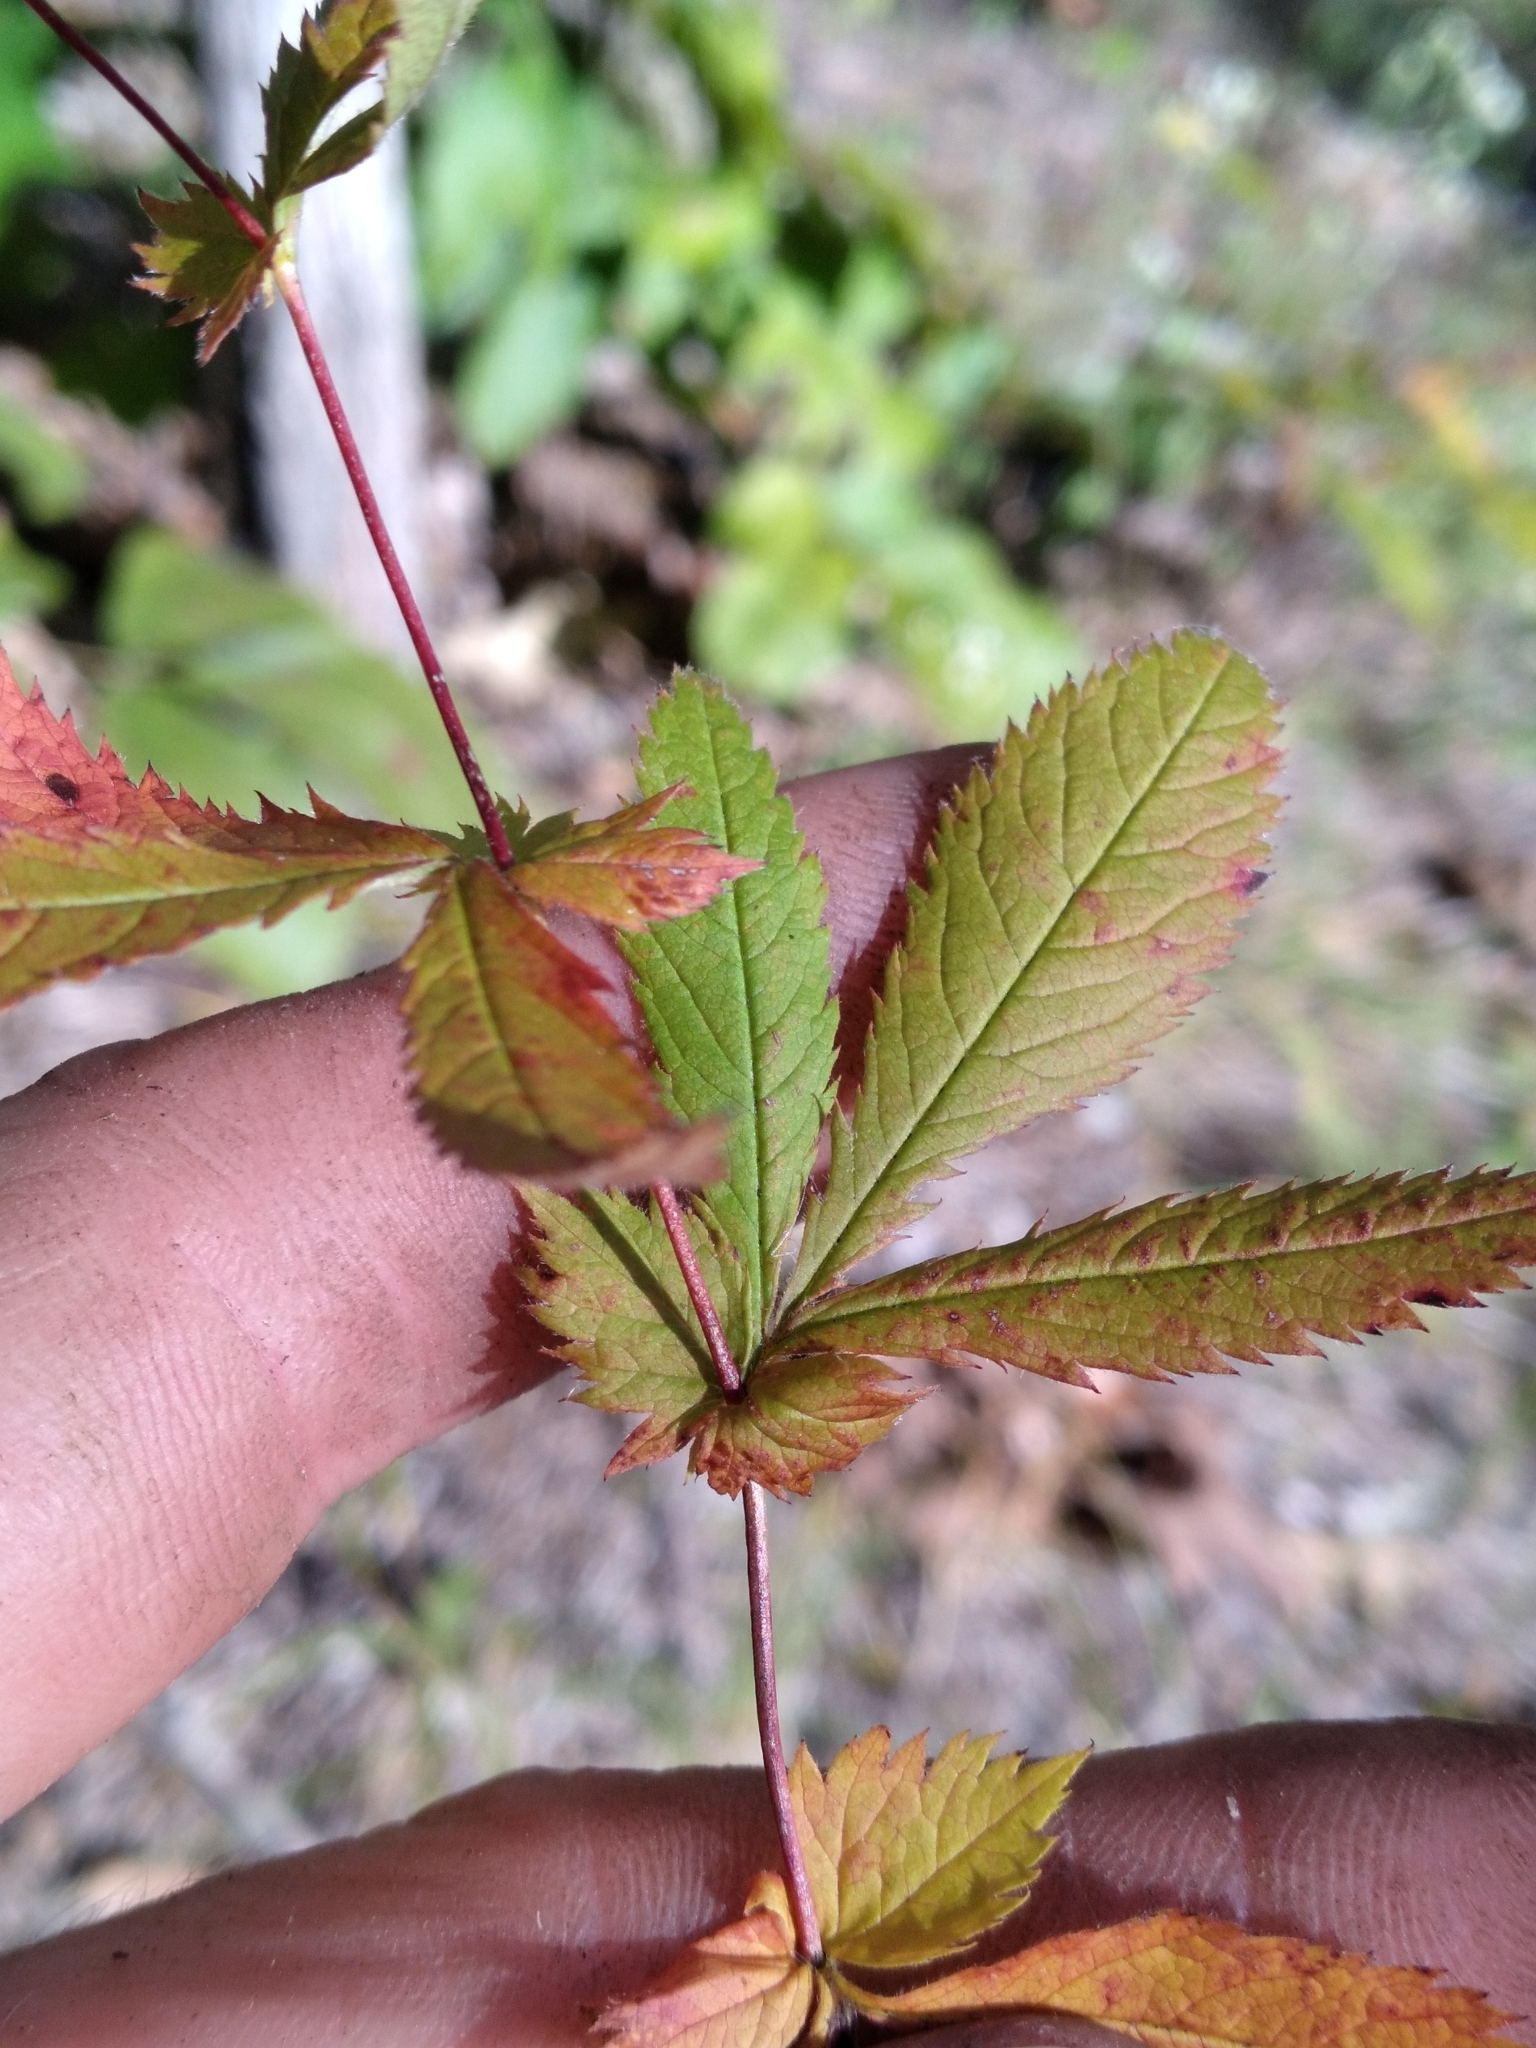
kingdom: Plantae
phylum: Tracheophyta
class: Magnoliopsida
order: Rosales
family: Rosaceae
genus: Gillenia
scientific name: Gillenia stipulata
